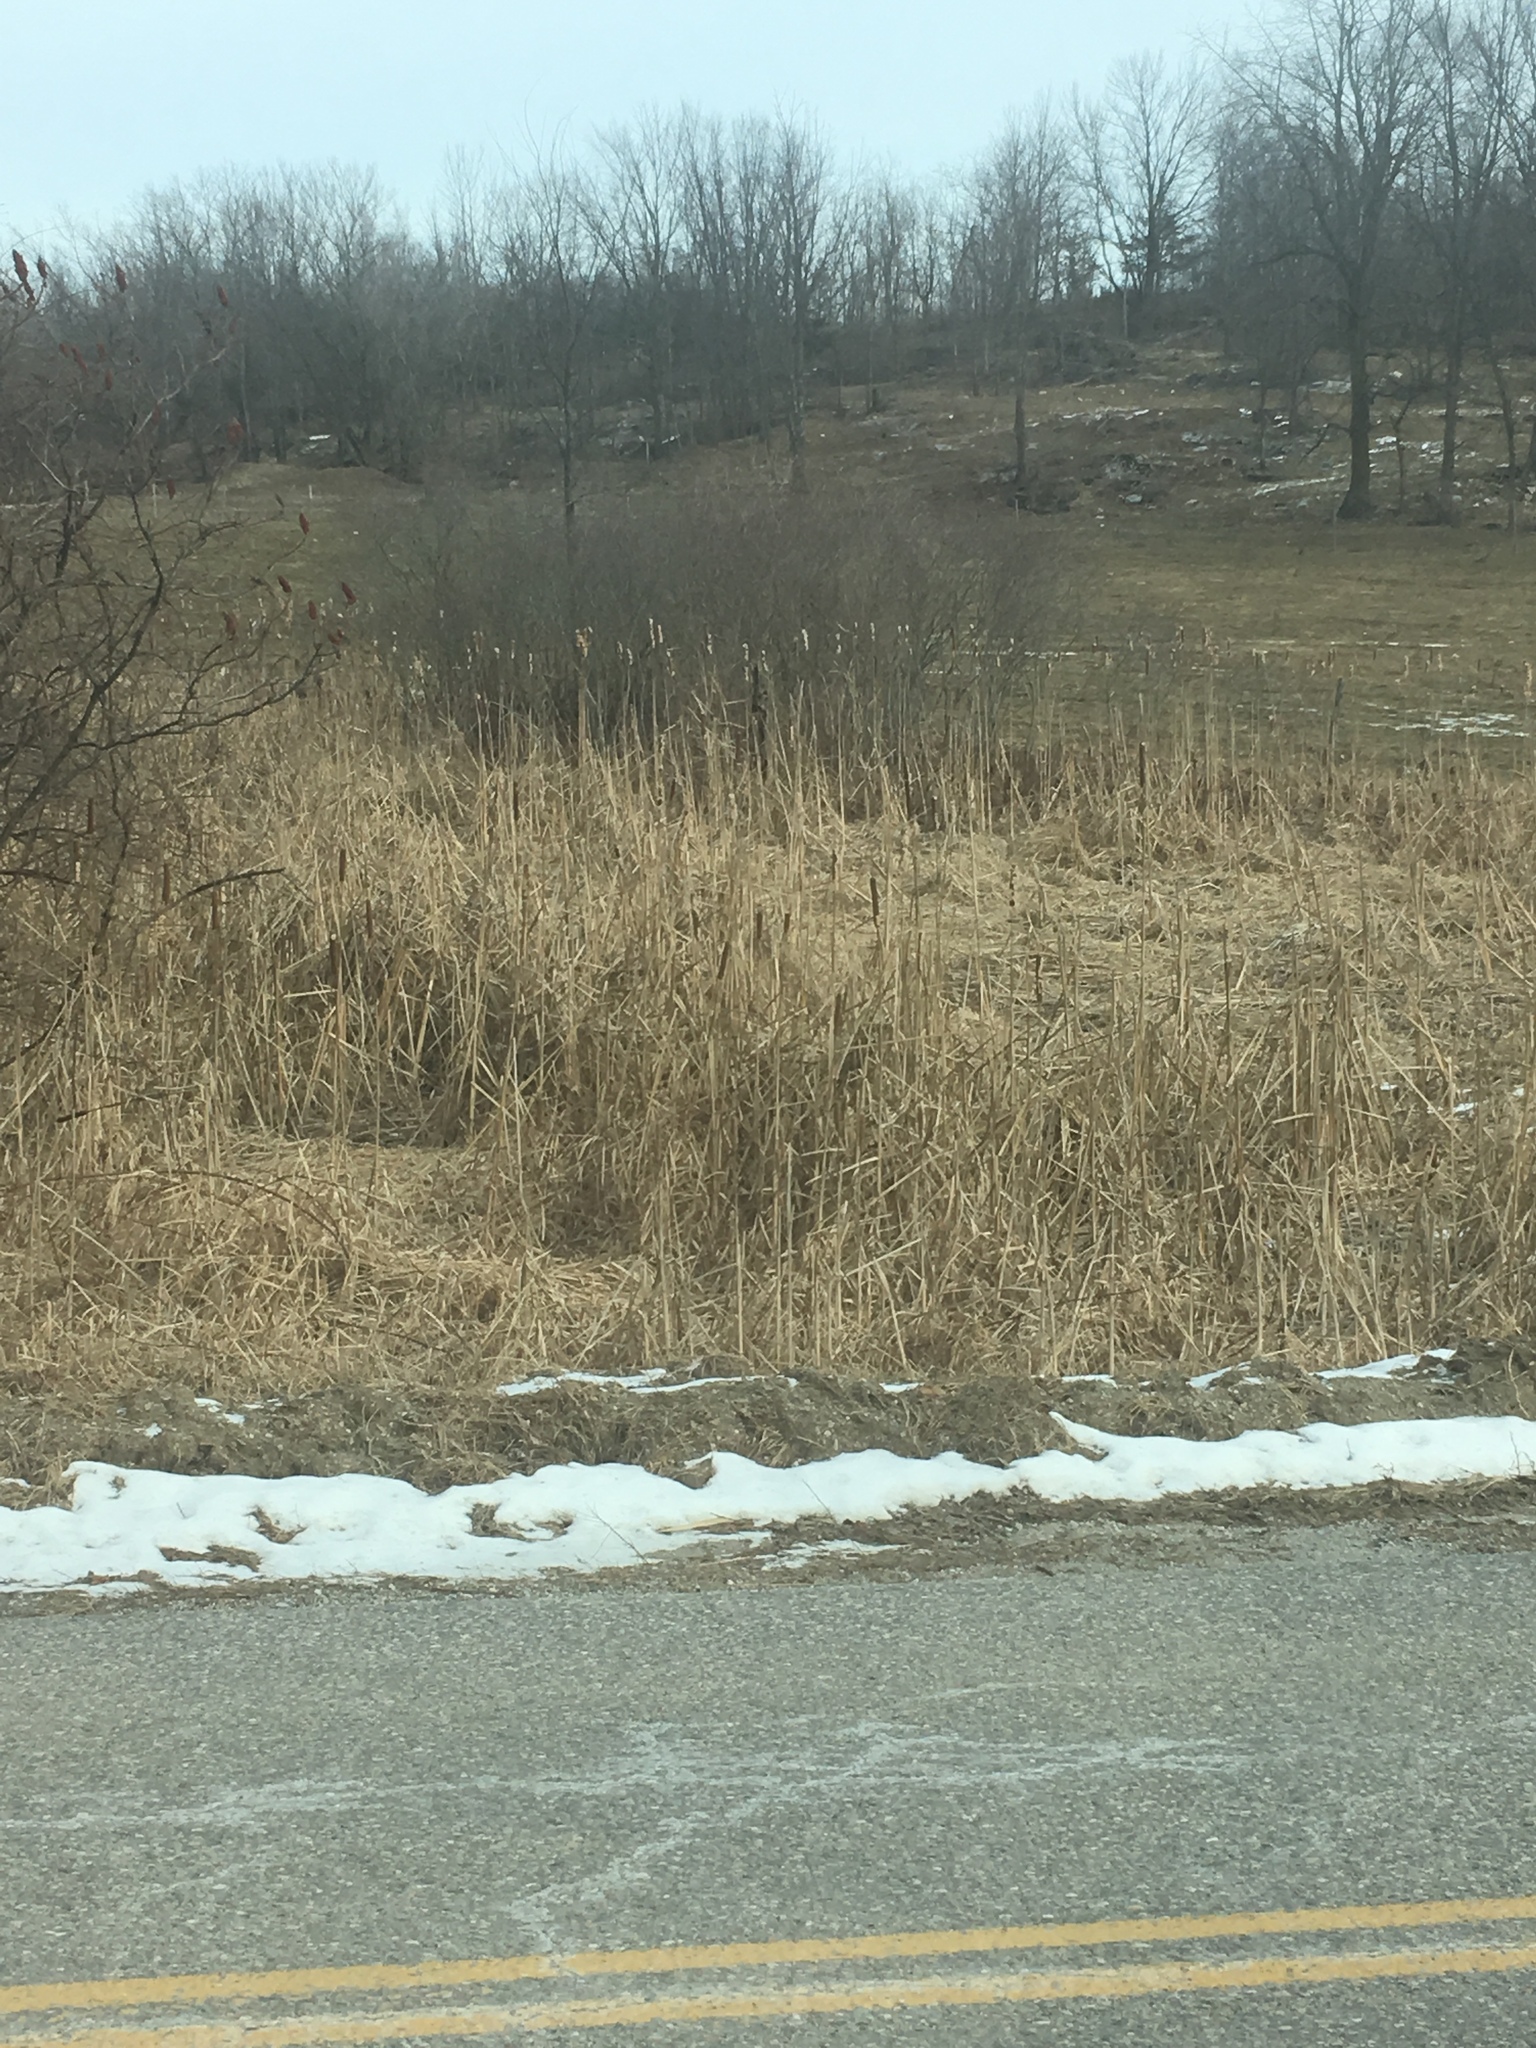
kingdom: Plantae
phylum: Tracheophyta
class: Magnoliopsida
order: Sapindales
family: Anacardiaceae
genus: Rhus
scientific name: Rhus typhina
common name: Staghorn sumac
